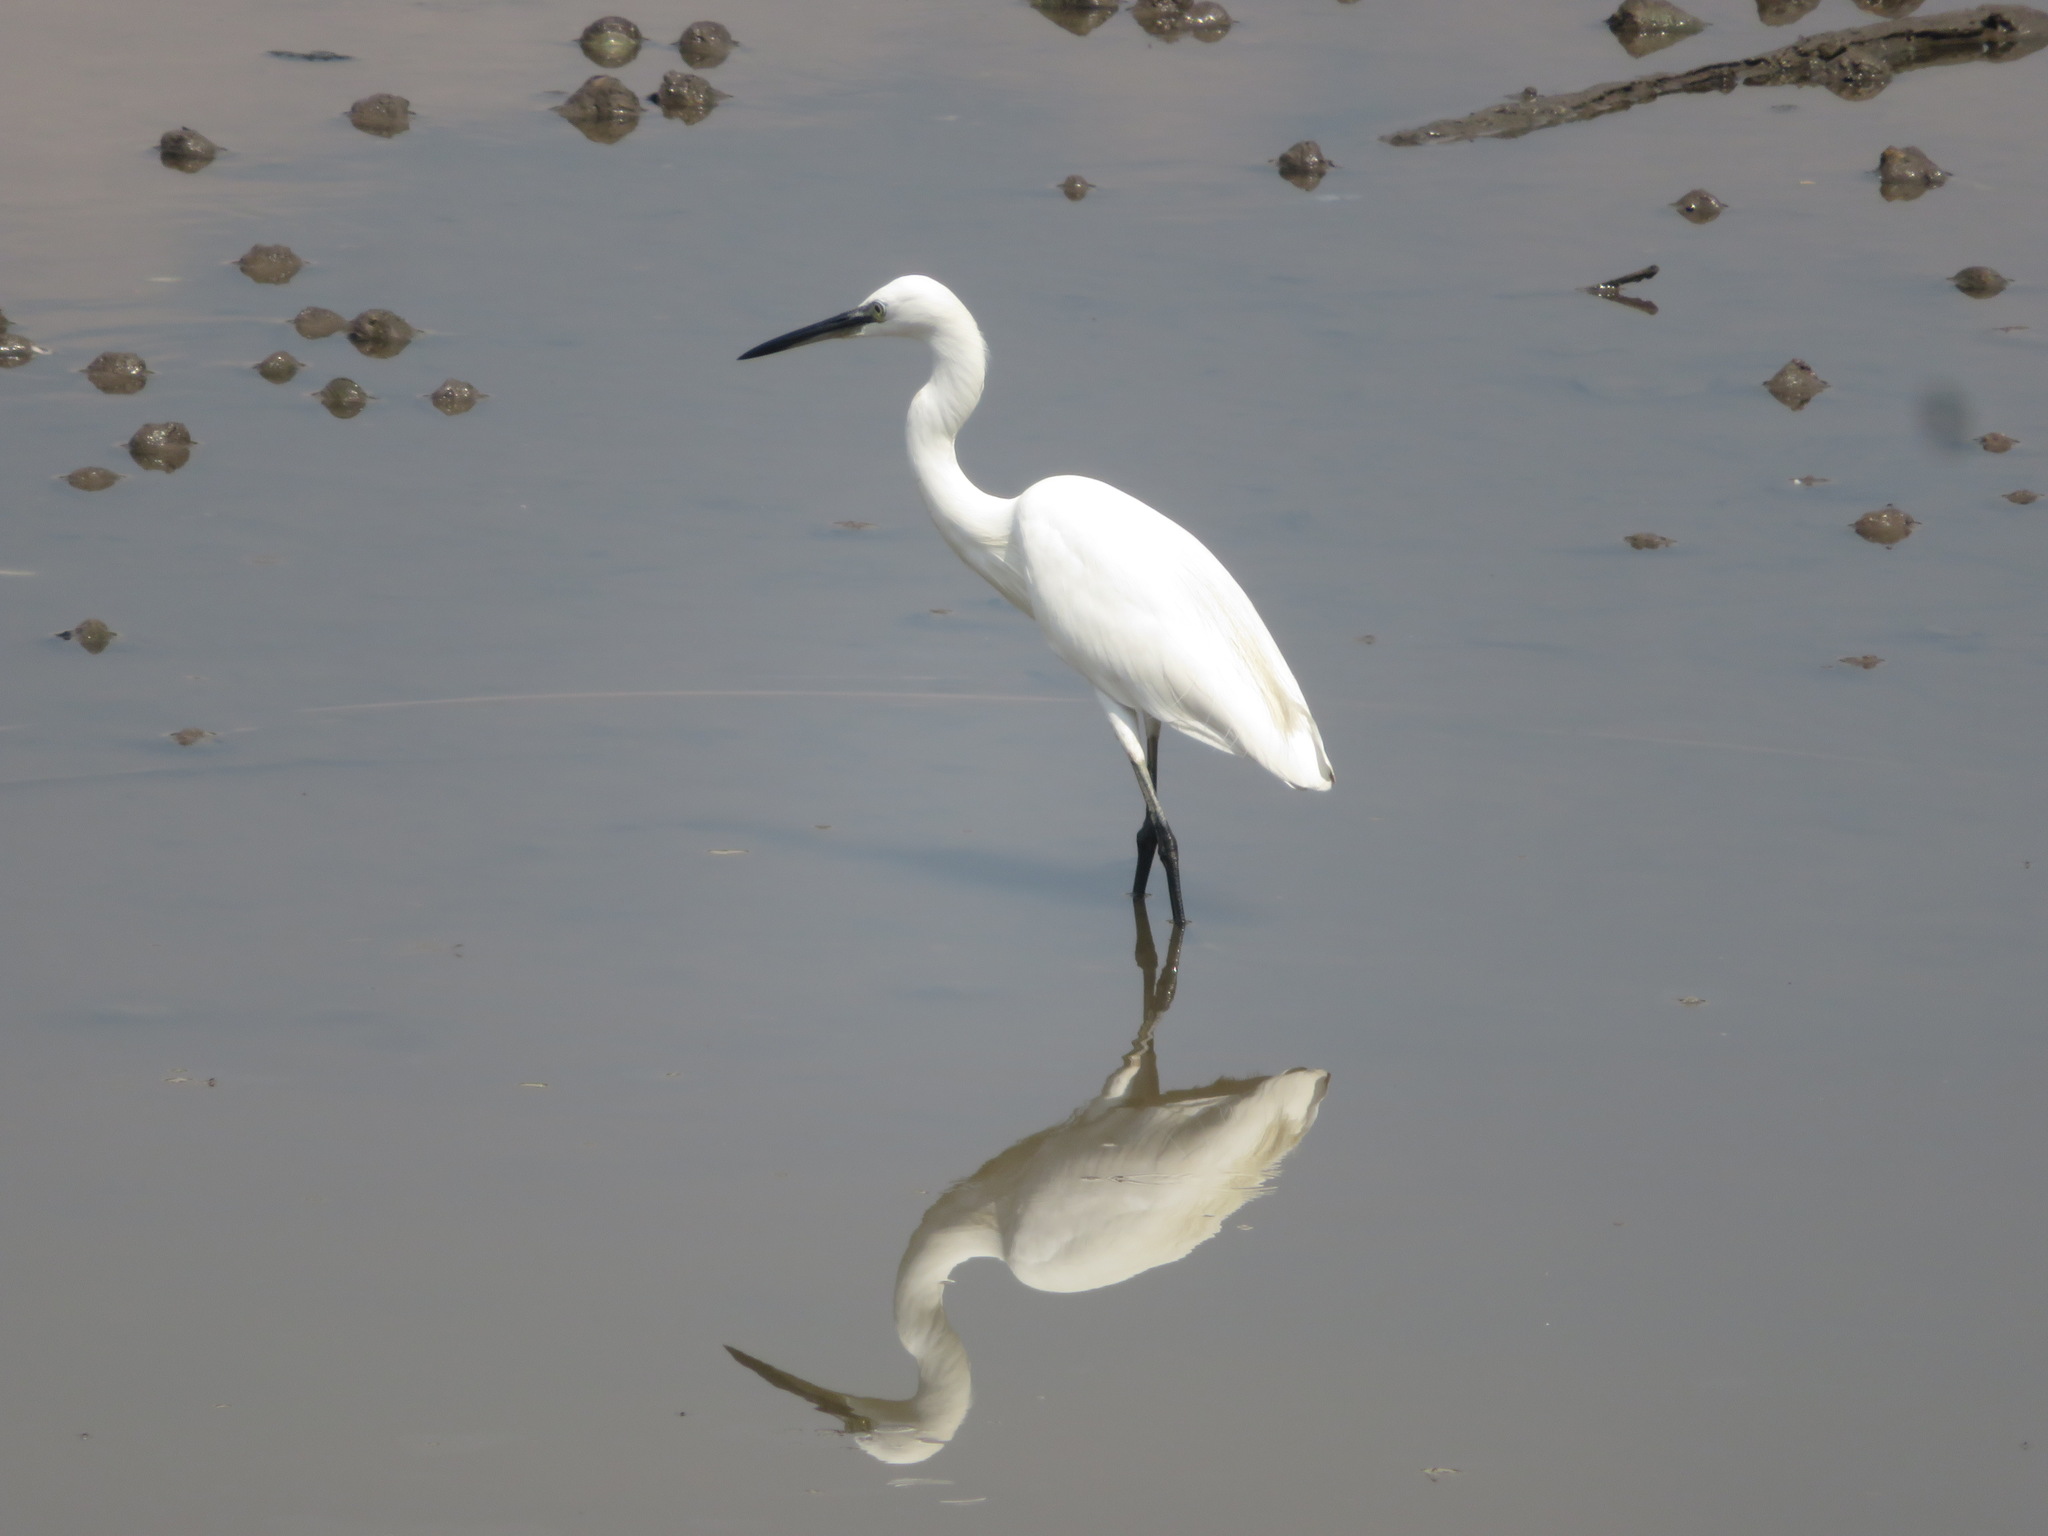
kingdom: Animalia
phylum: Chordata
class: Aves
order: Pelecaniformes
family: Ardeidae
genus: Egretta
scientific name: Egretta garzetta
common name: Little egret
